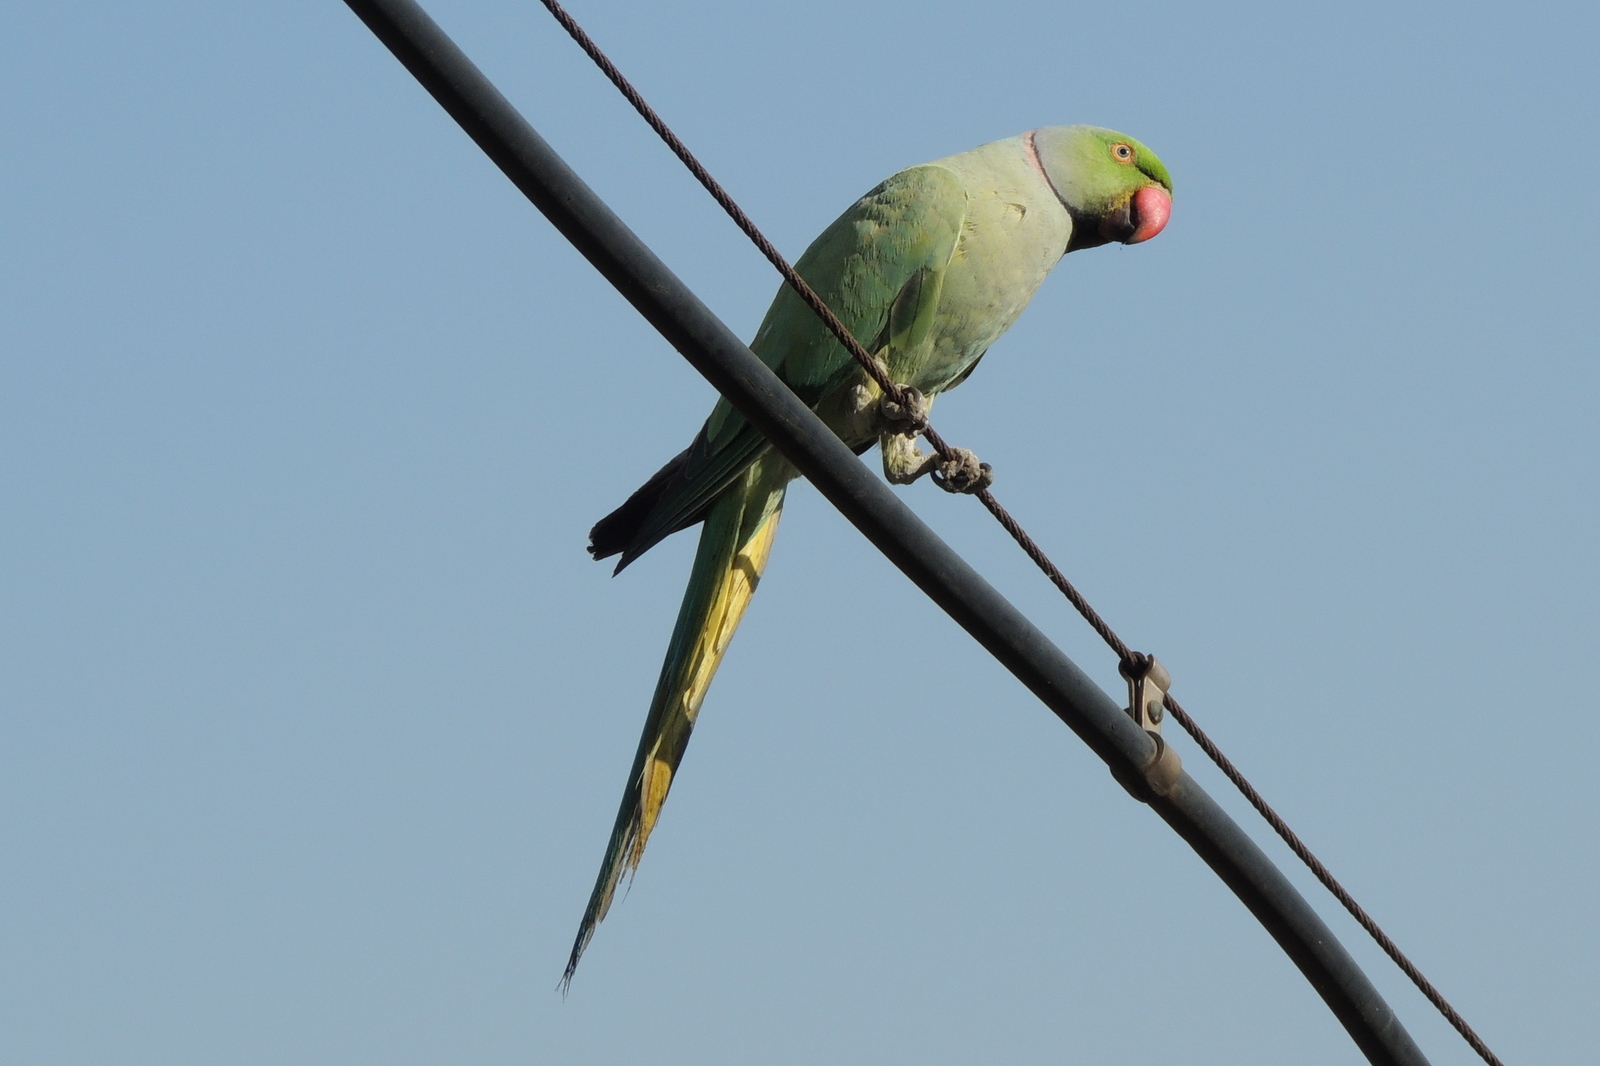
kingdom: Animalia
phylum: Chordata
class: Aves
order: Psittaciformes
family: Psittacidae
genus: Psittacula
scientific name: Psittacula krameri
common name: Rose-ringed parakeet
